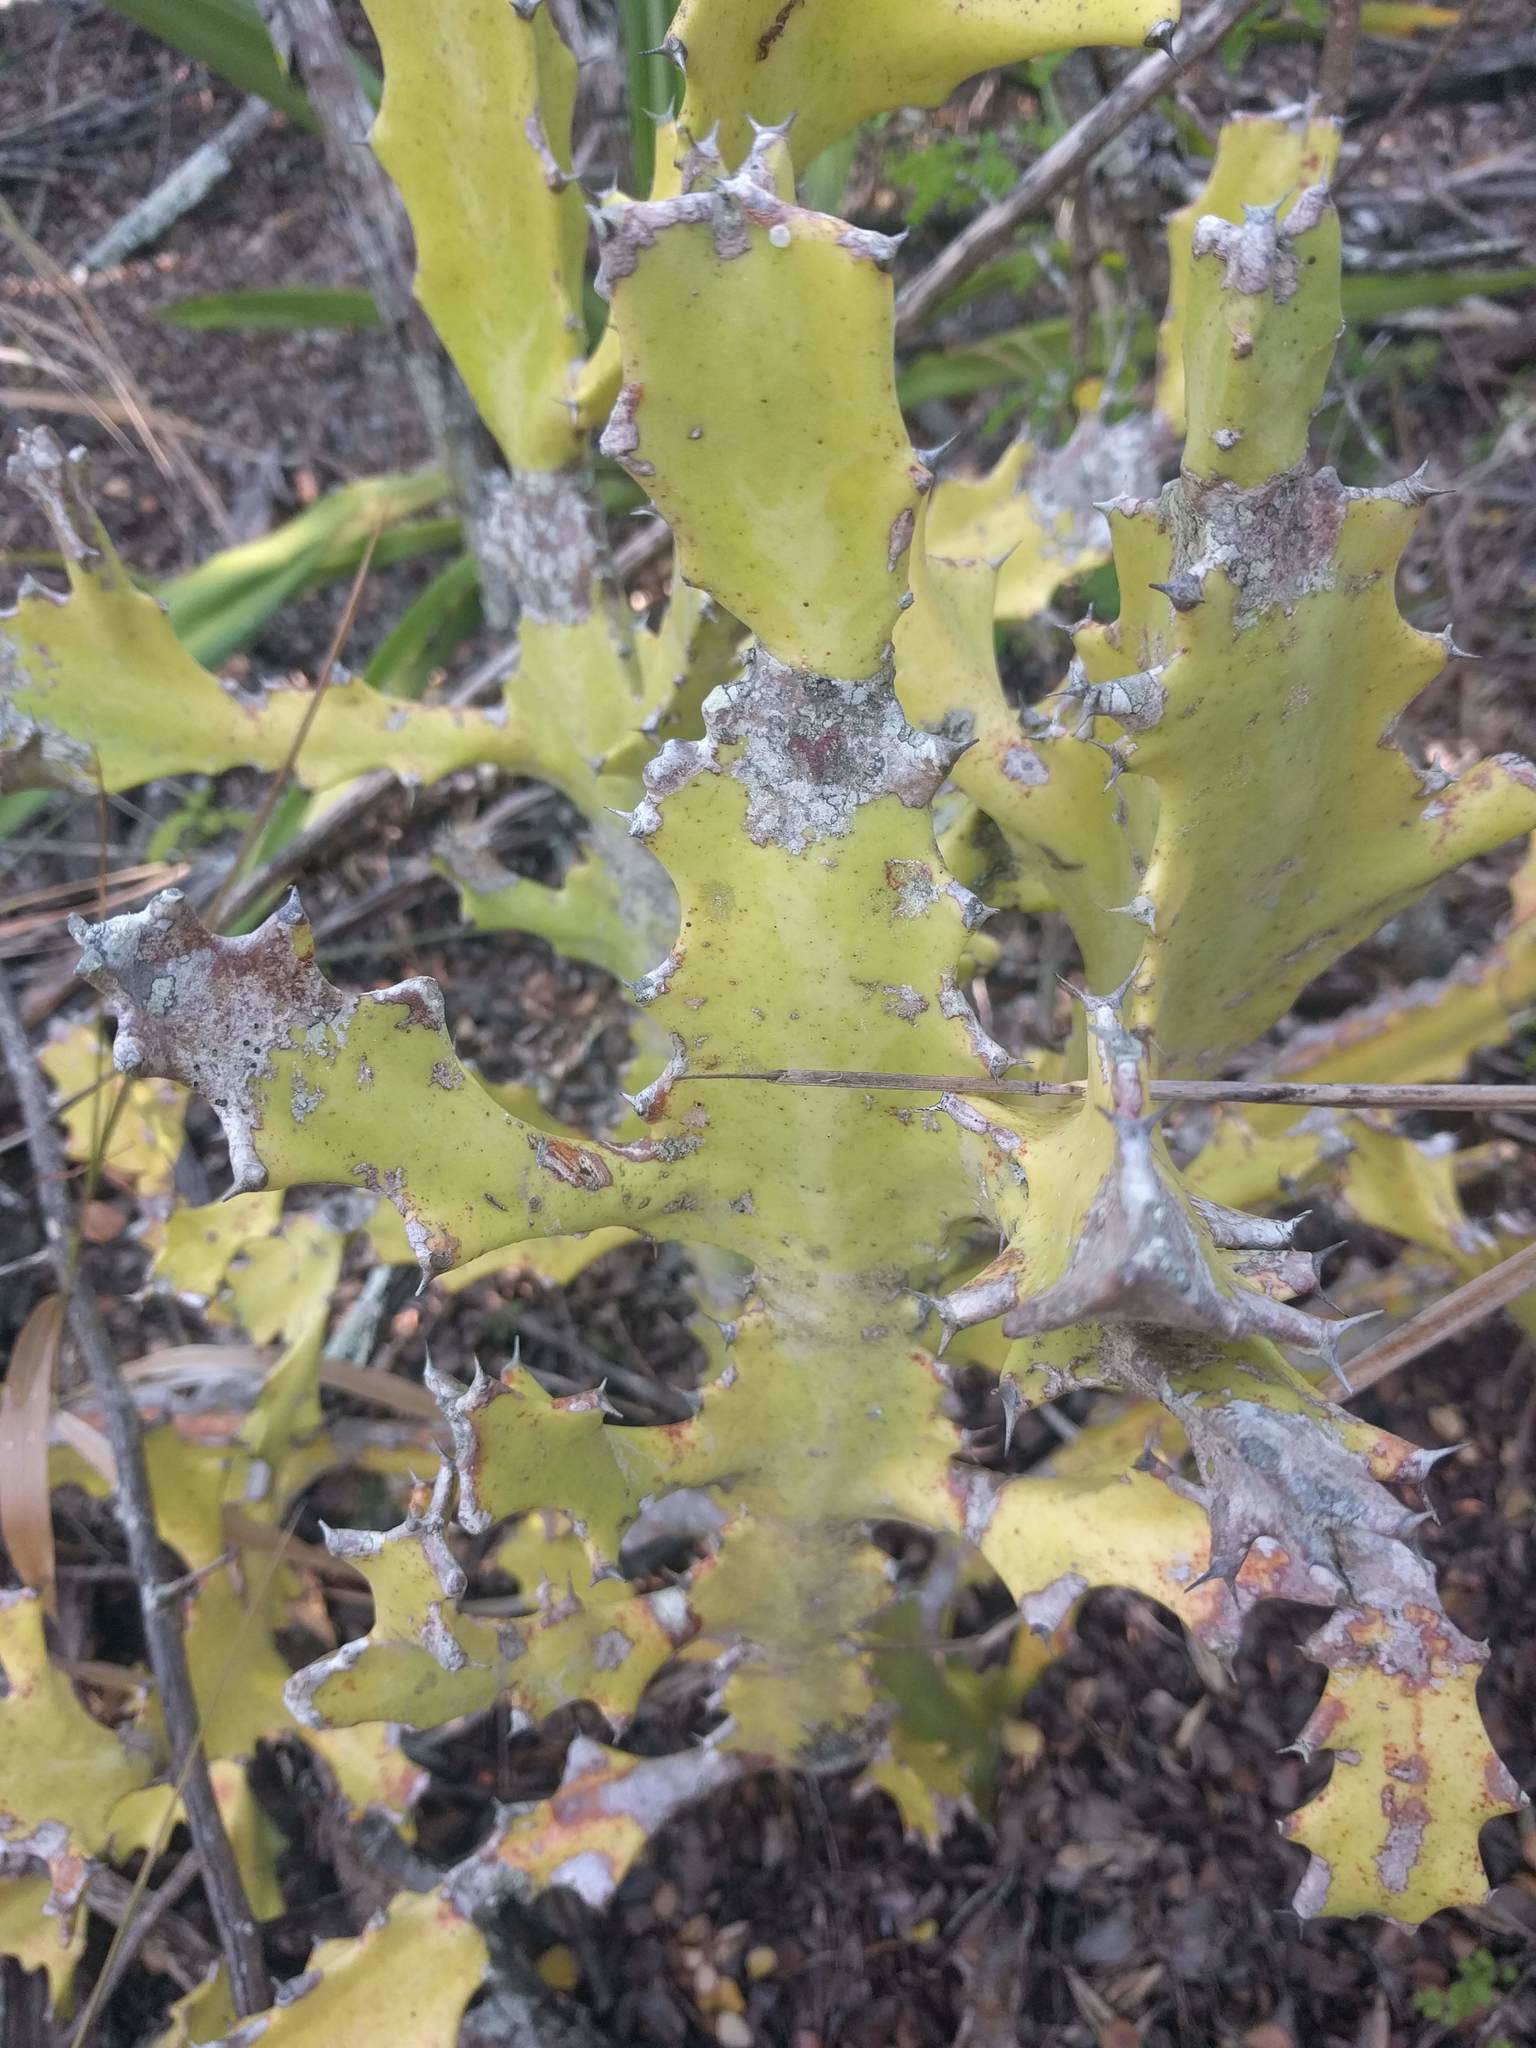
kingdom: Plantae
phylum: Tracheophyta
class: Magnoliopsida
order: Malpighiales
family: Euphorbiaceae
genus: Euphorbia
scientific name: Euphorbia lactea
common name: Mottled spurge
